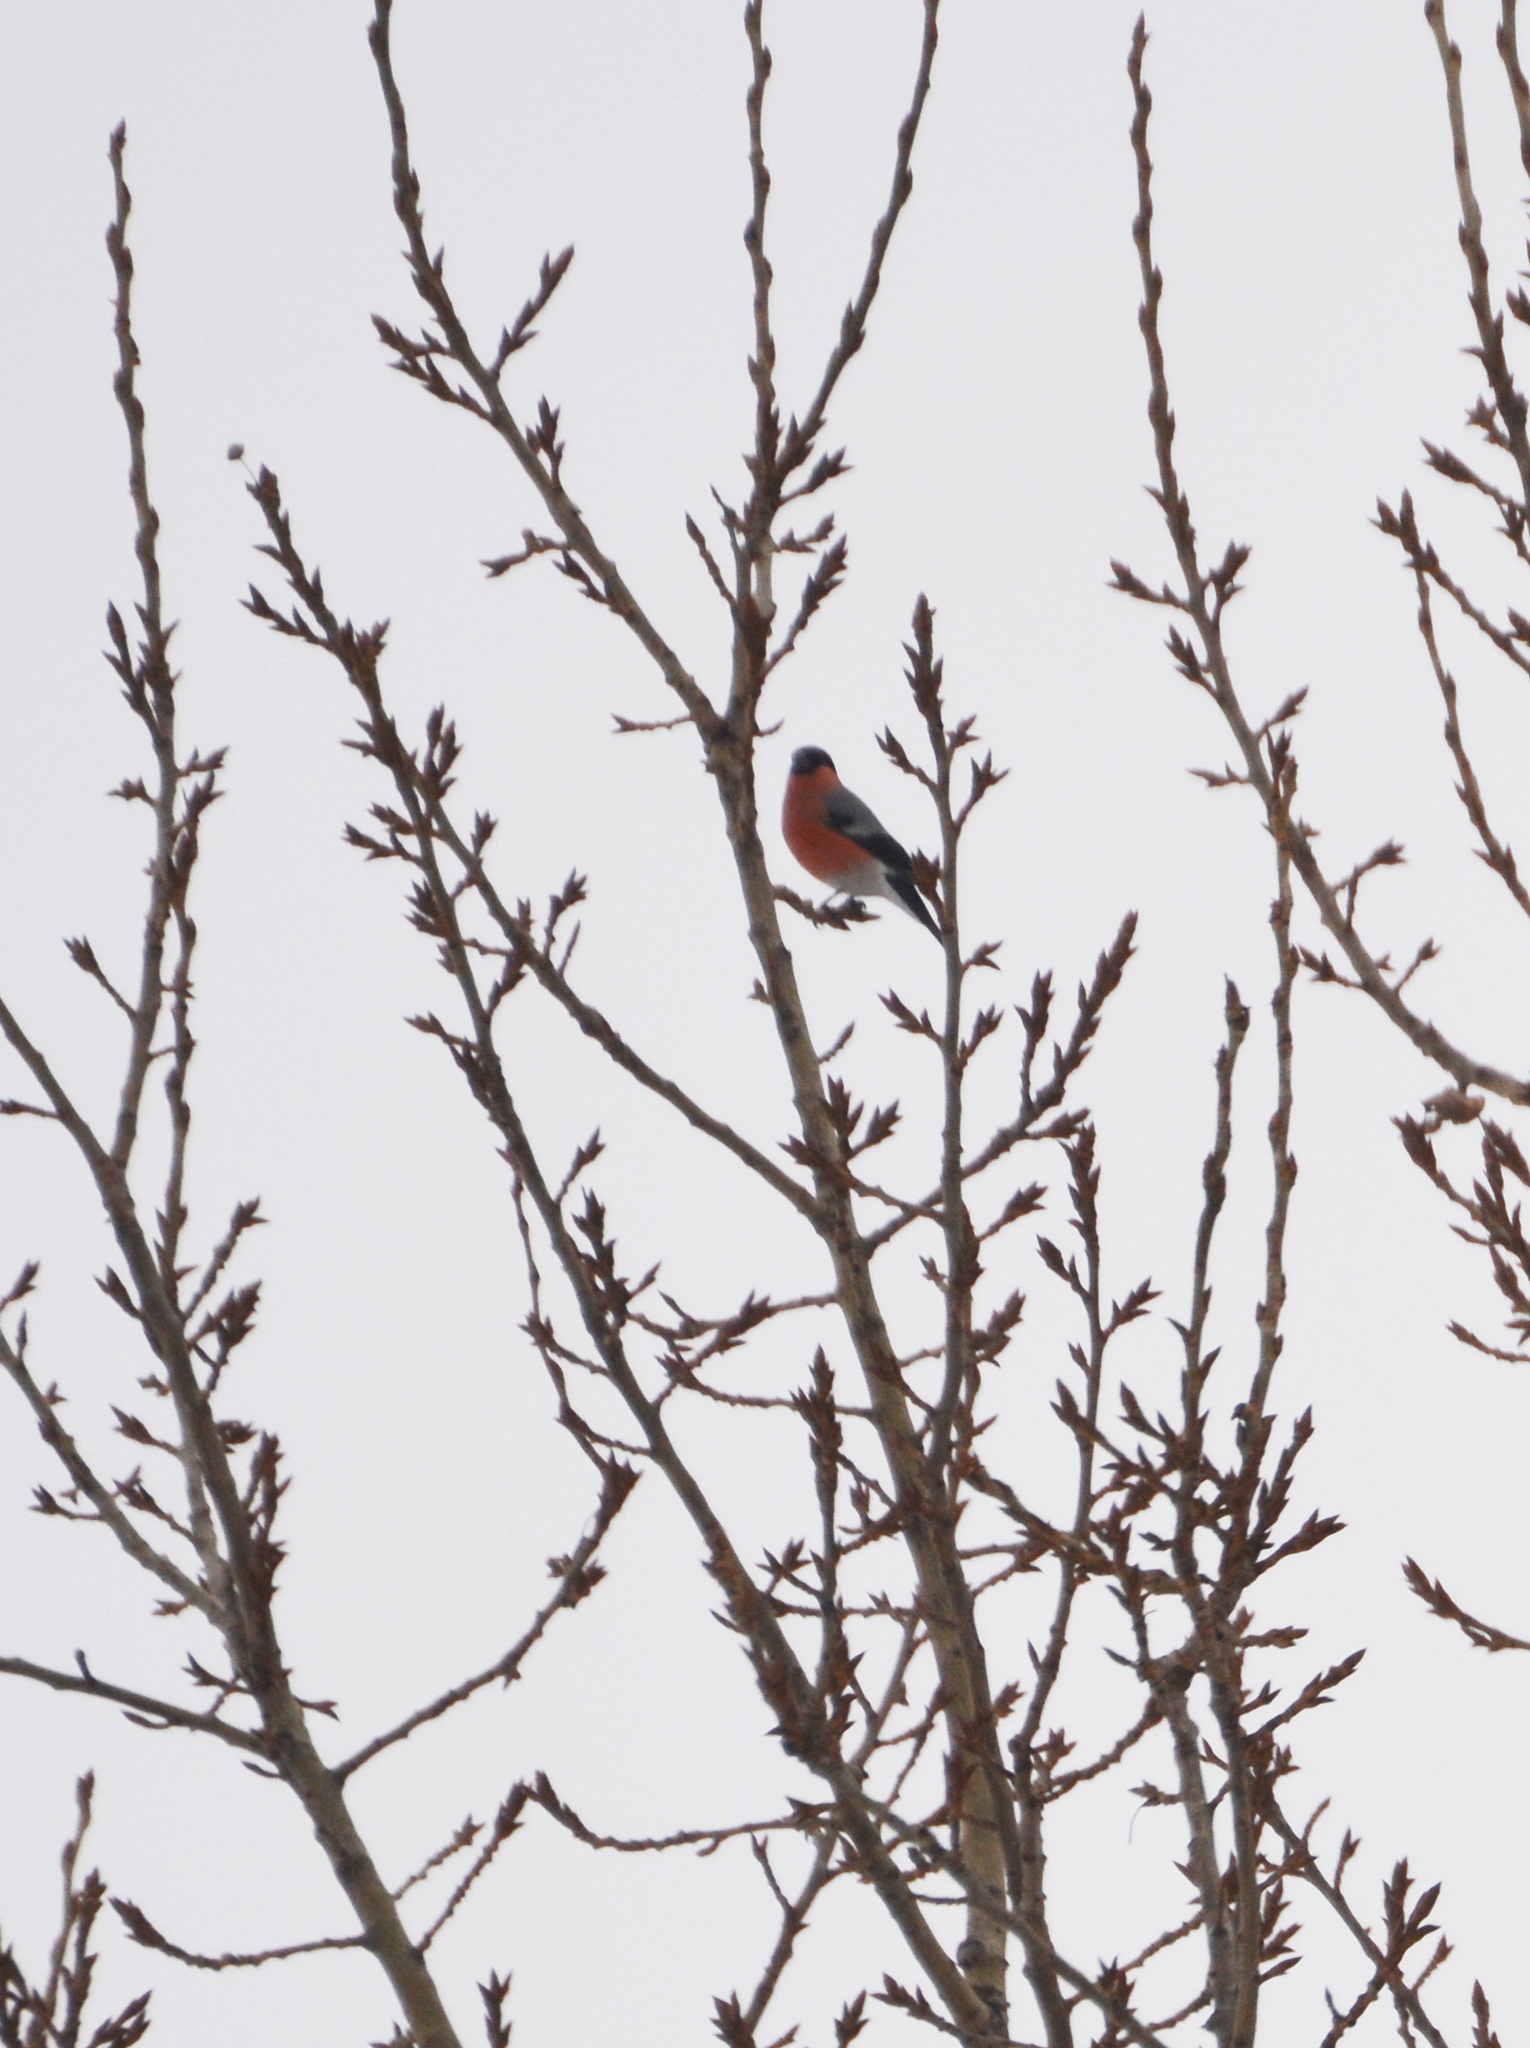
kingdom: Animalia
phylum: Chordata
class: Aves
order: Passeriformes
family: Fringillidae
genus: Pyrrhula
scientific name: Pyrrhula pyrrhula
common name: Eurasian bullfinch
